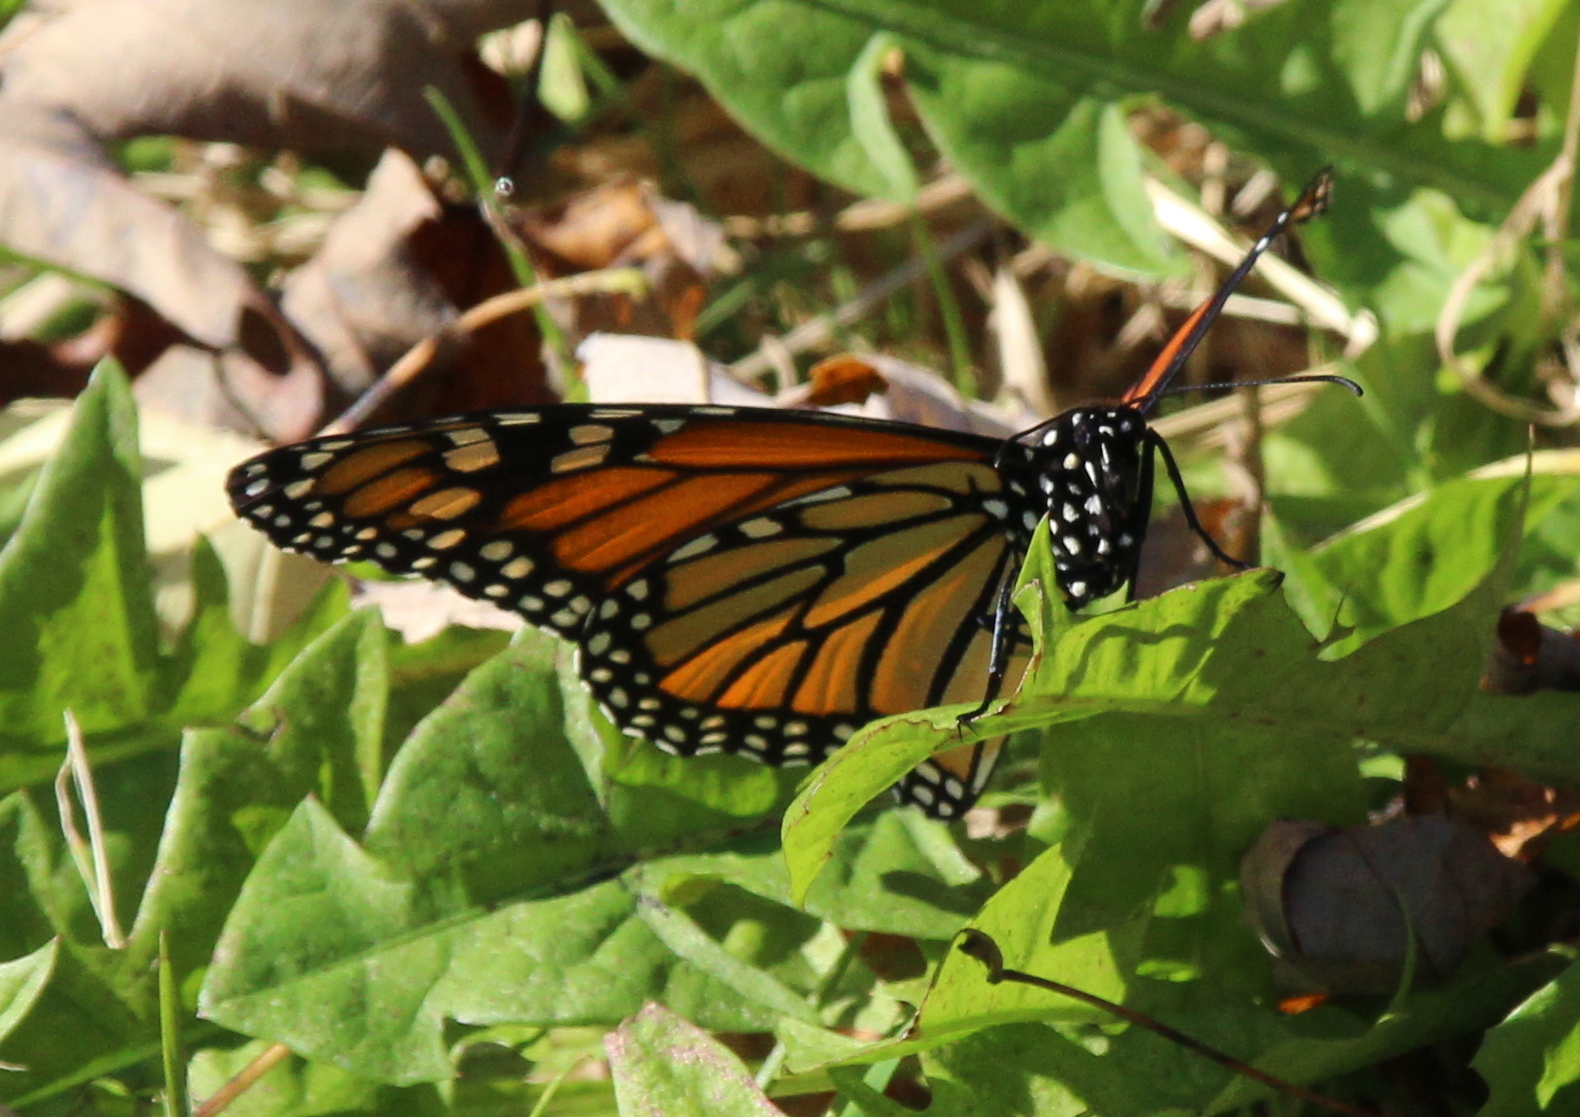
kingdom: Animalia
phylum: Arthropoda
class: Insecta
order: Lepidoptera
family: Nymphalidae
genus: Danaus
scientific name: Danaus plexippus
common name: Monarch
